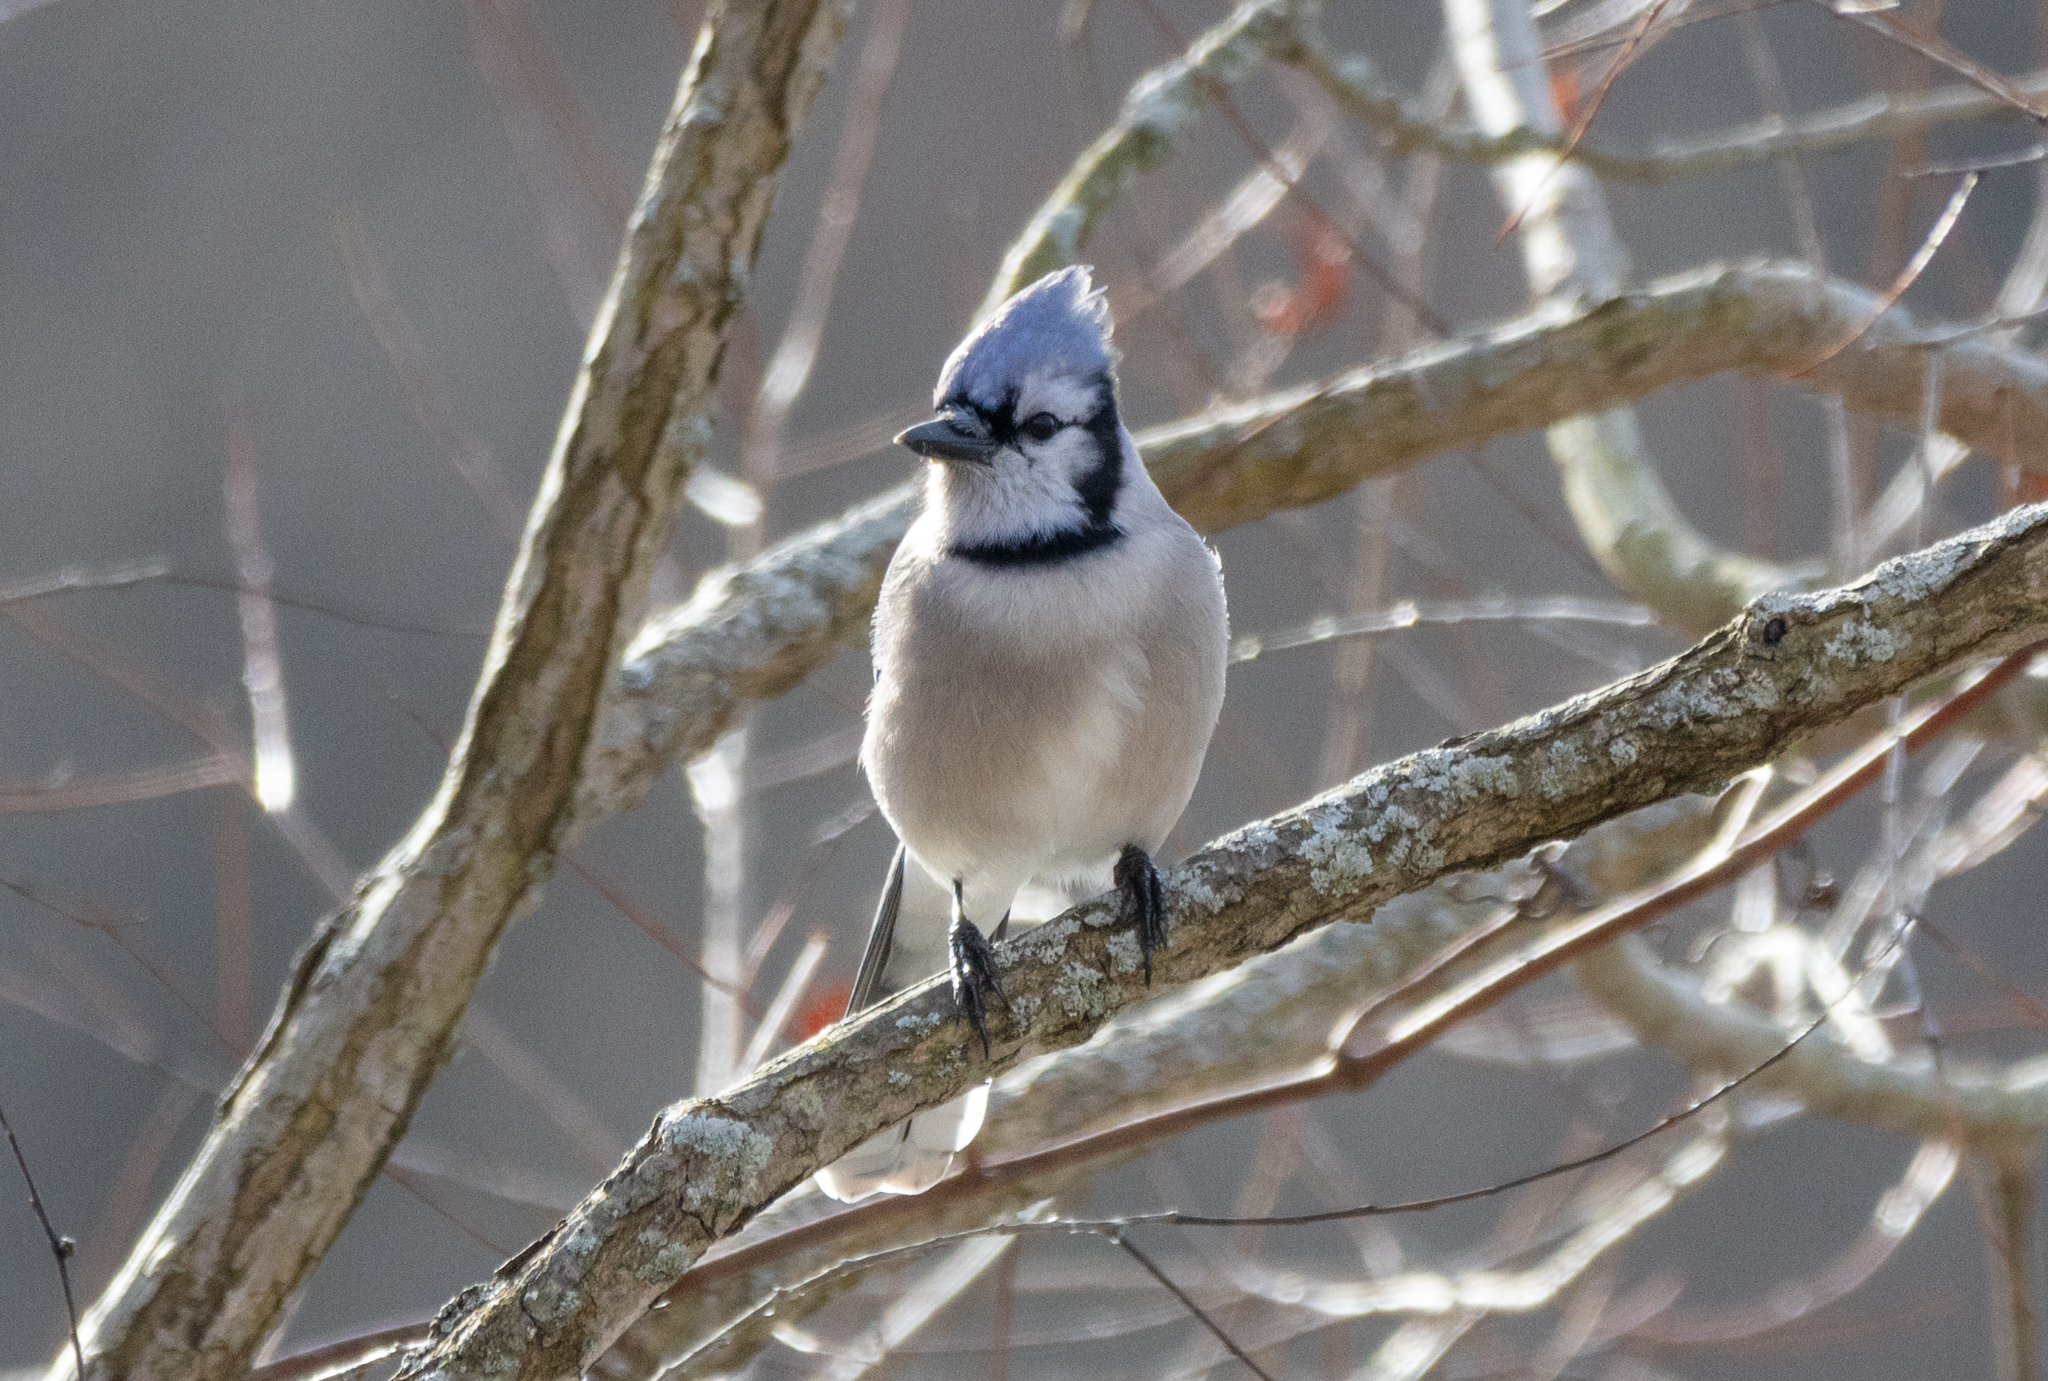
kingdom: Animalia
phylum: Chordata
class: Aves
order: Passeriformes
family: Corvidae
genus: Cyanocitta
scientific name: Cyanocitta cristata
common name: Blue jay
